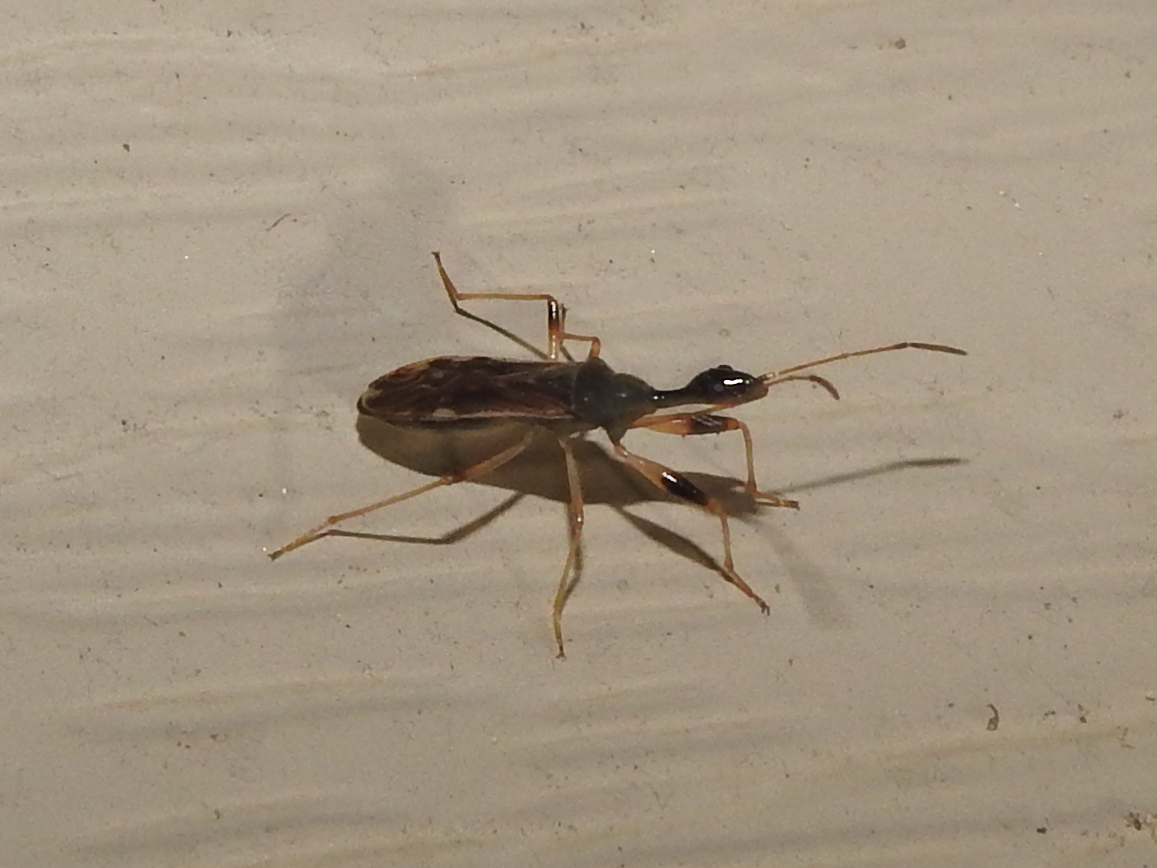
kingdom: Animalia
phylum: Arthropoda
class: Insecta
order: Hemiptera
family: Rhyparochromidae
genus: Myodocha
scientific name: Myodocha serripes
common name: Long-necked seed bug
